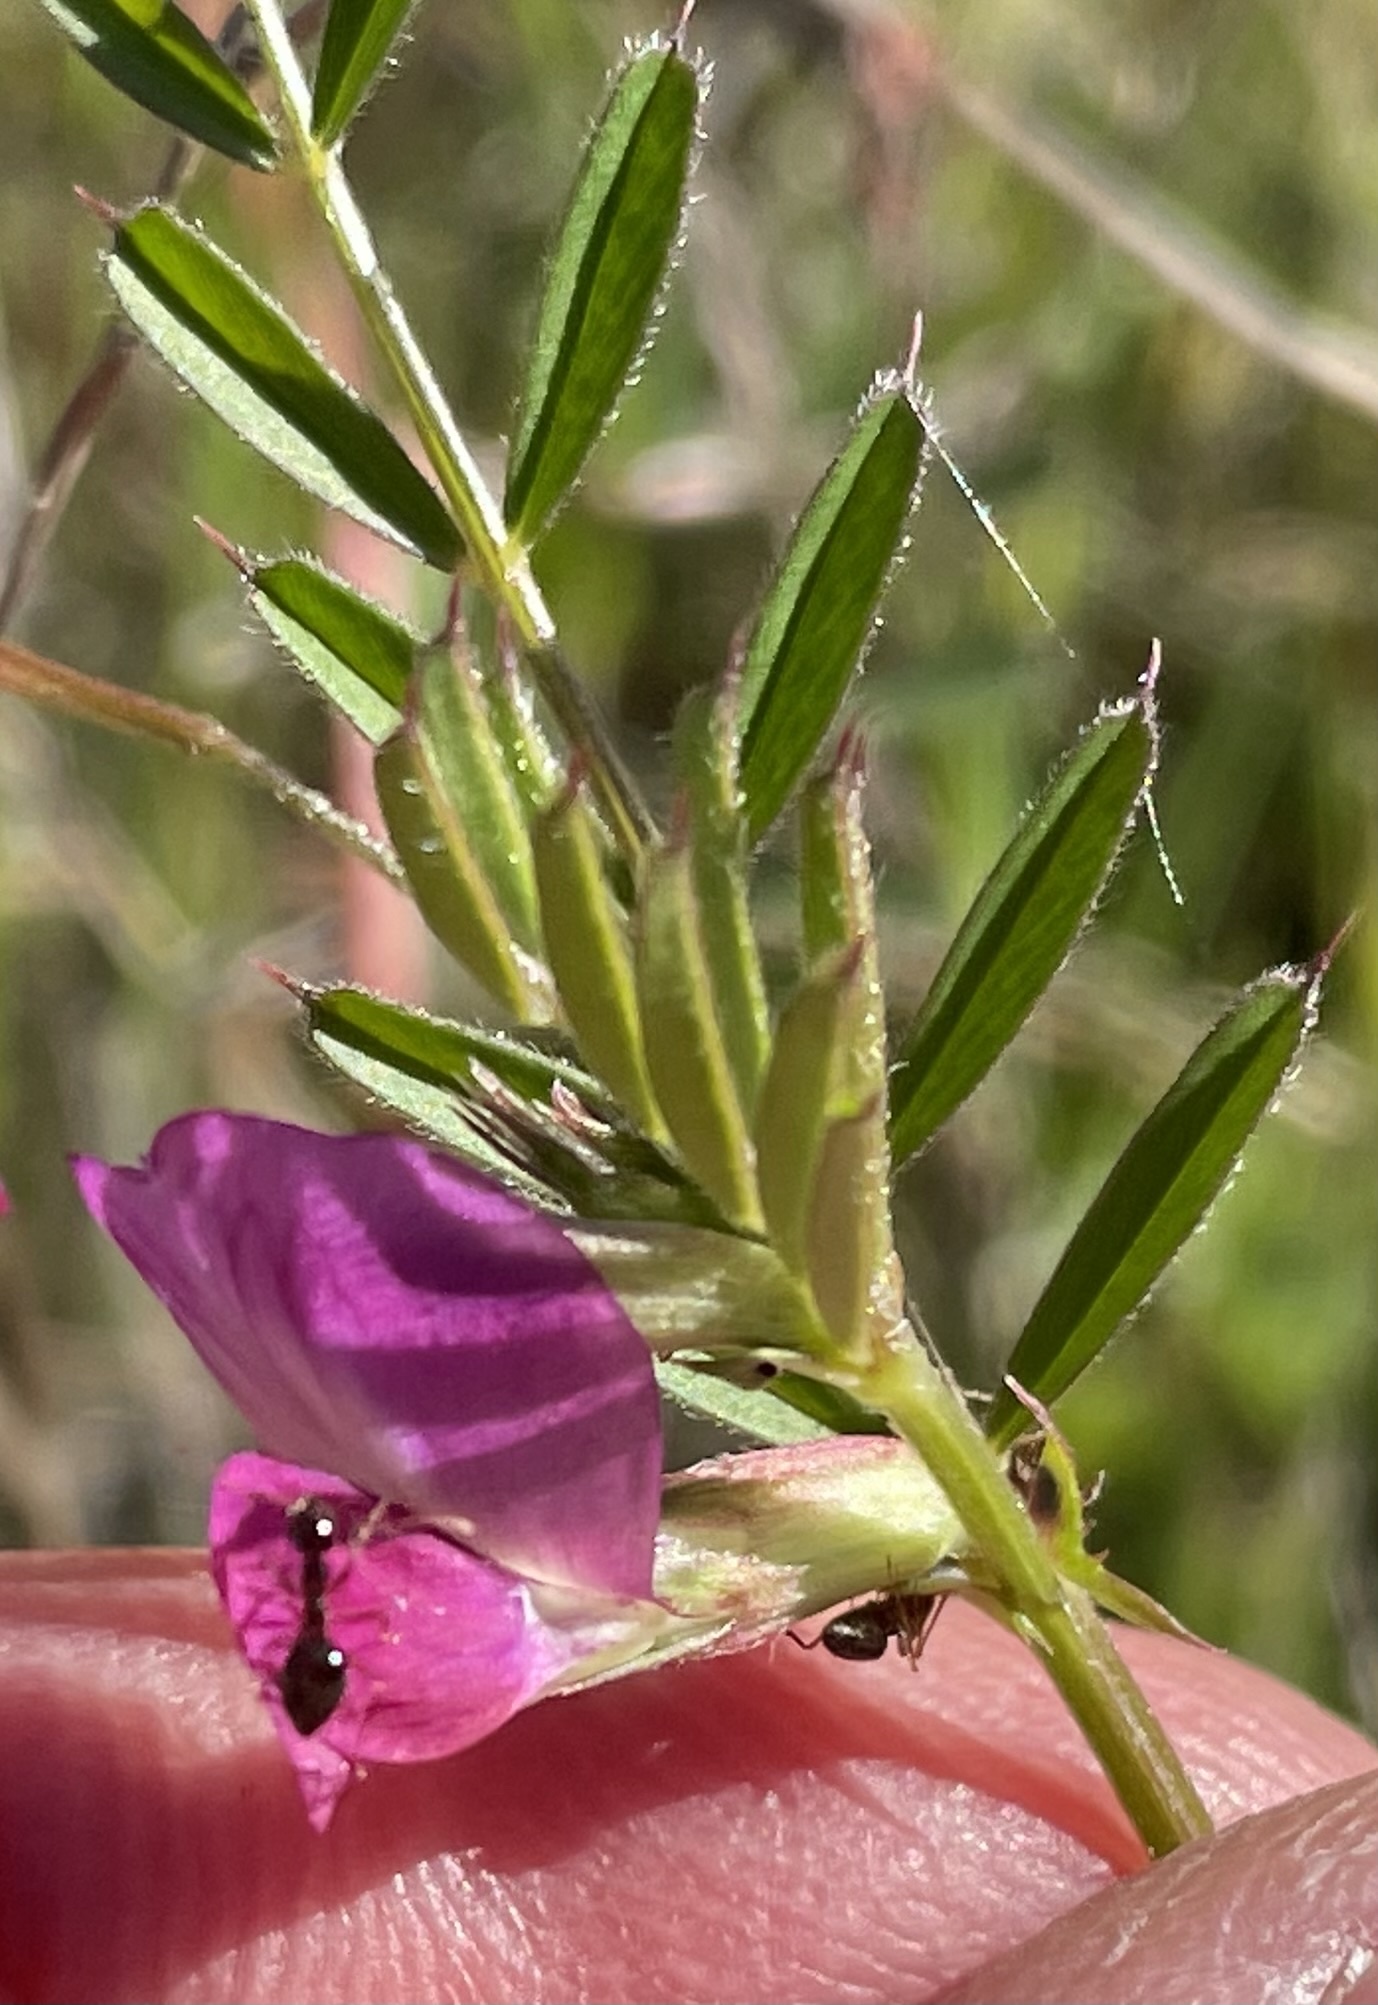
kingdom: Plantae
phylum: Tracheophyta
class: Magnoliopsida
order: Fabales
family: Fabaceae
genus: Vicia
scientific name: Vicia sativa
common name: Garden vetch
